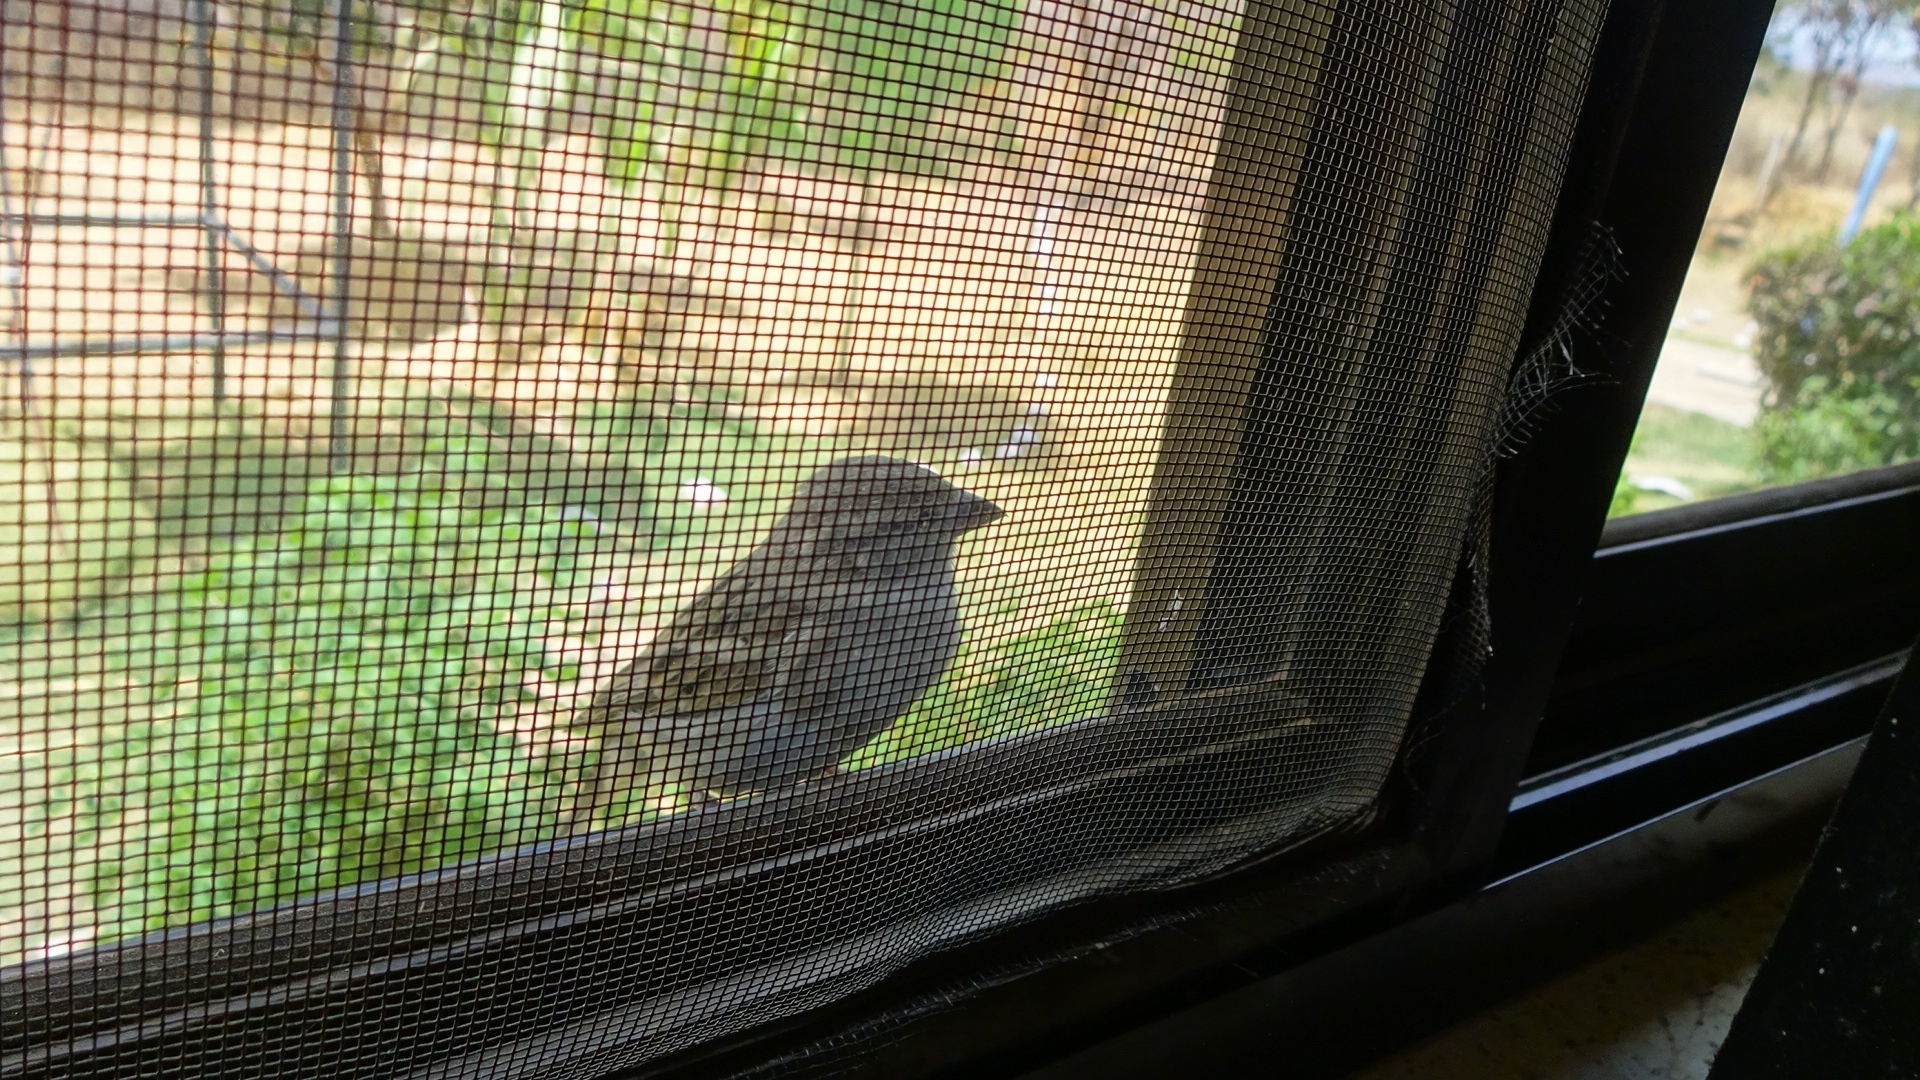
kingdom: Animalia
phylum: Chordata
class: Aves
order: Passeriformes
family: Passeridae
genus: Passer
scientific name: Passer domesticus
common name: House sparrow
